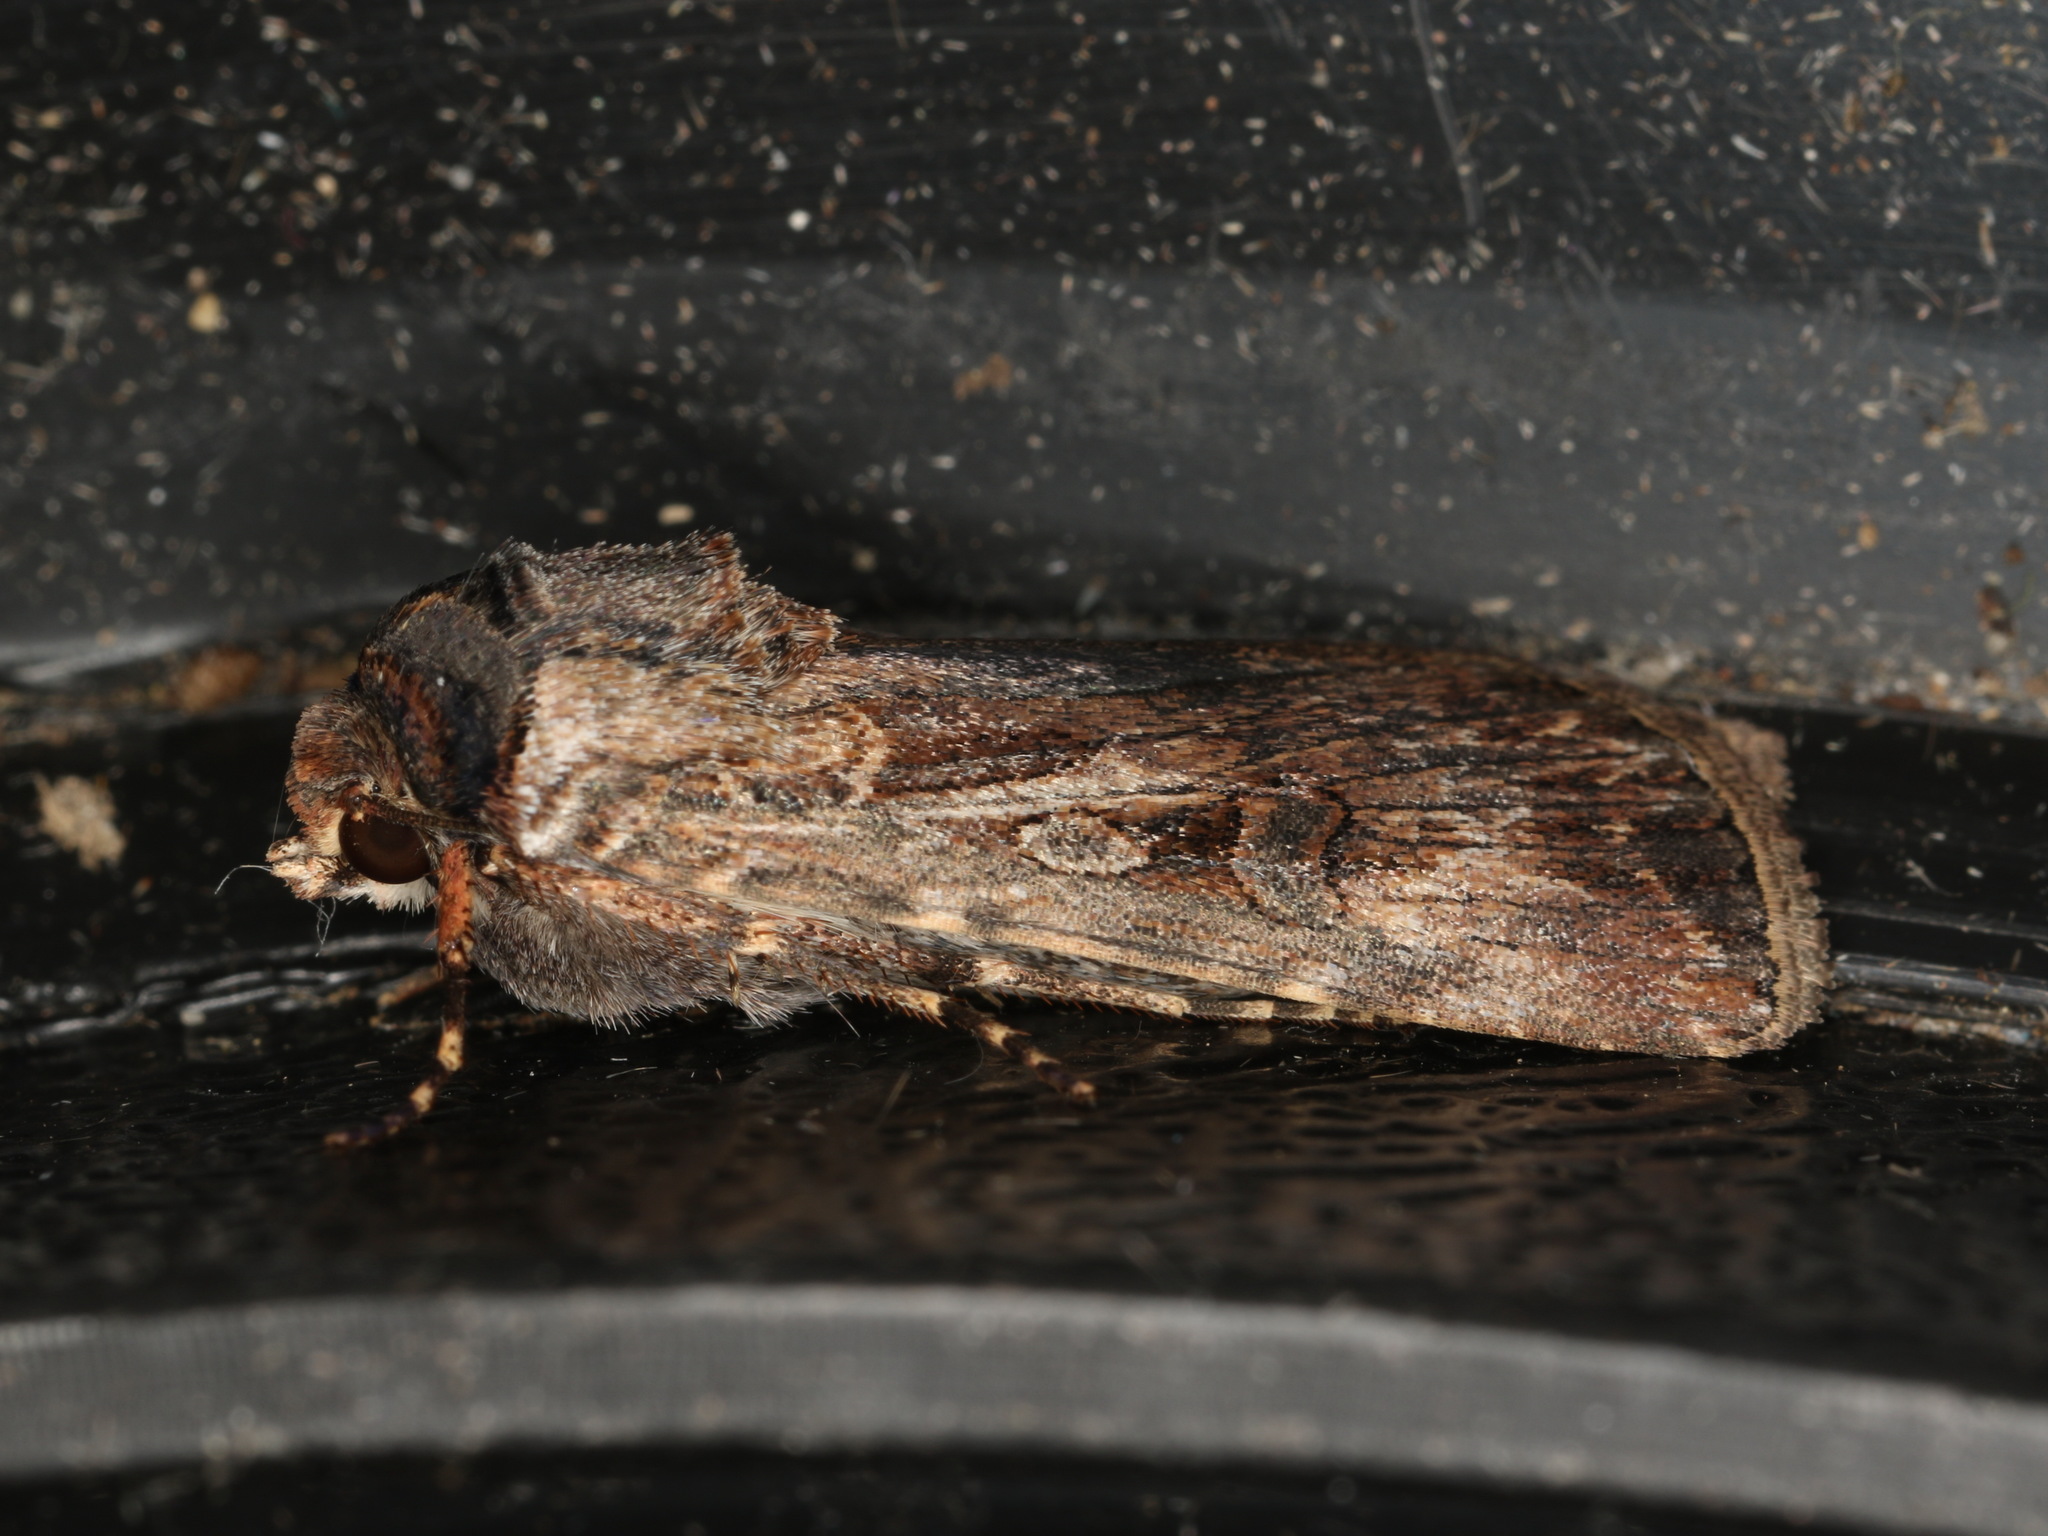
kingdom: Animalia
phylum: Arthropoda
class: Insecta
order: Lepidoptera
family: Noctuidae
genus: Agrotis
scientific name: Agrotis munda
